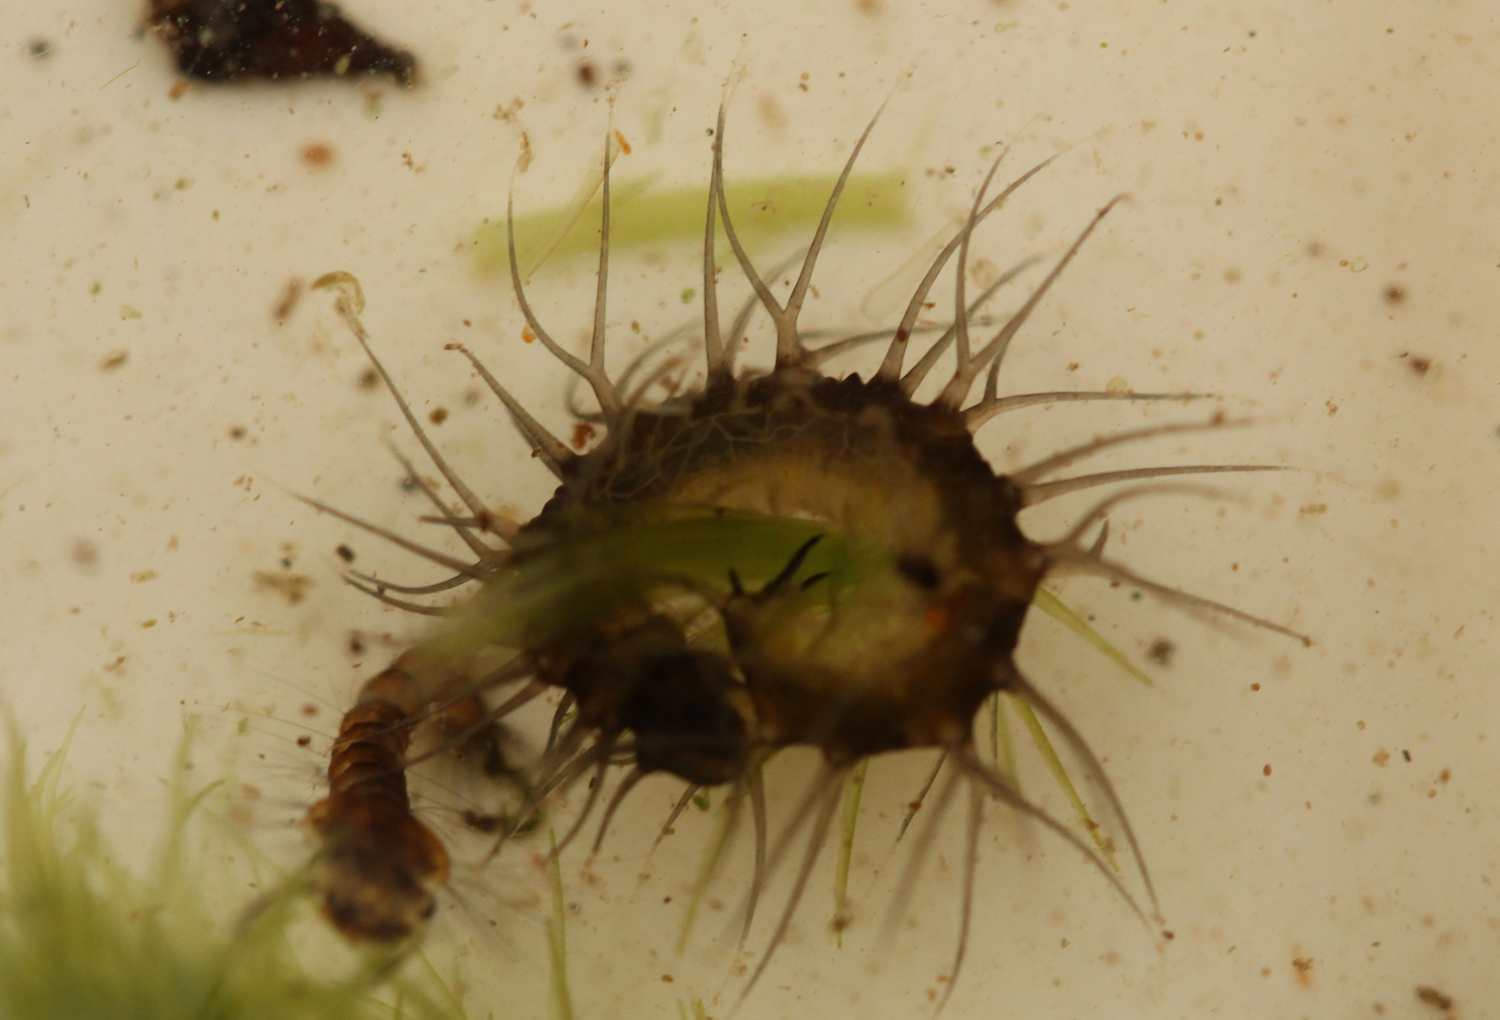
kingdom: Animalia
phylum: Arthropoda
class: Insecta
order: Diptera
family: Cylindrotomidae
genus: Phalacrocera
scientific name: Phalacrocera replicata
